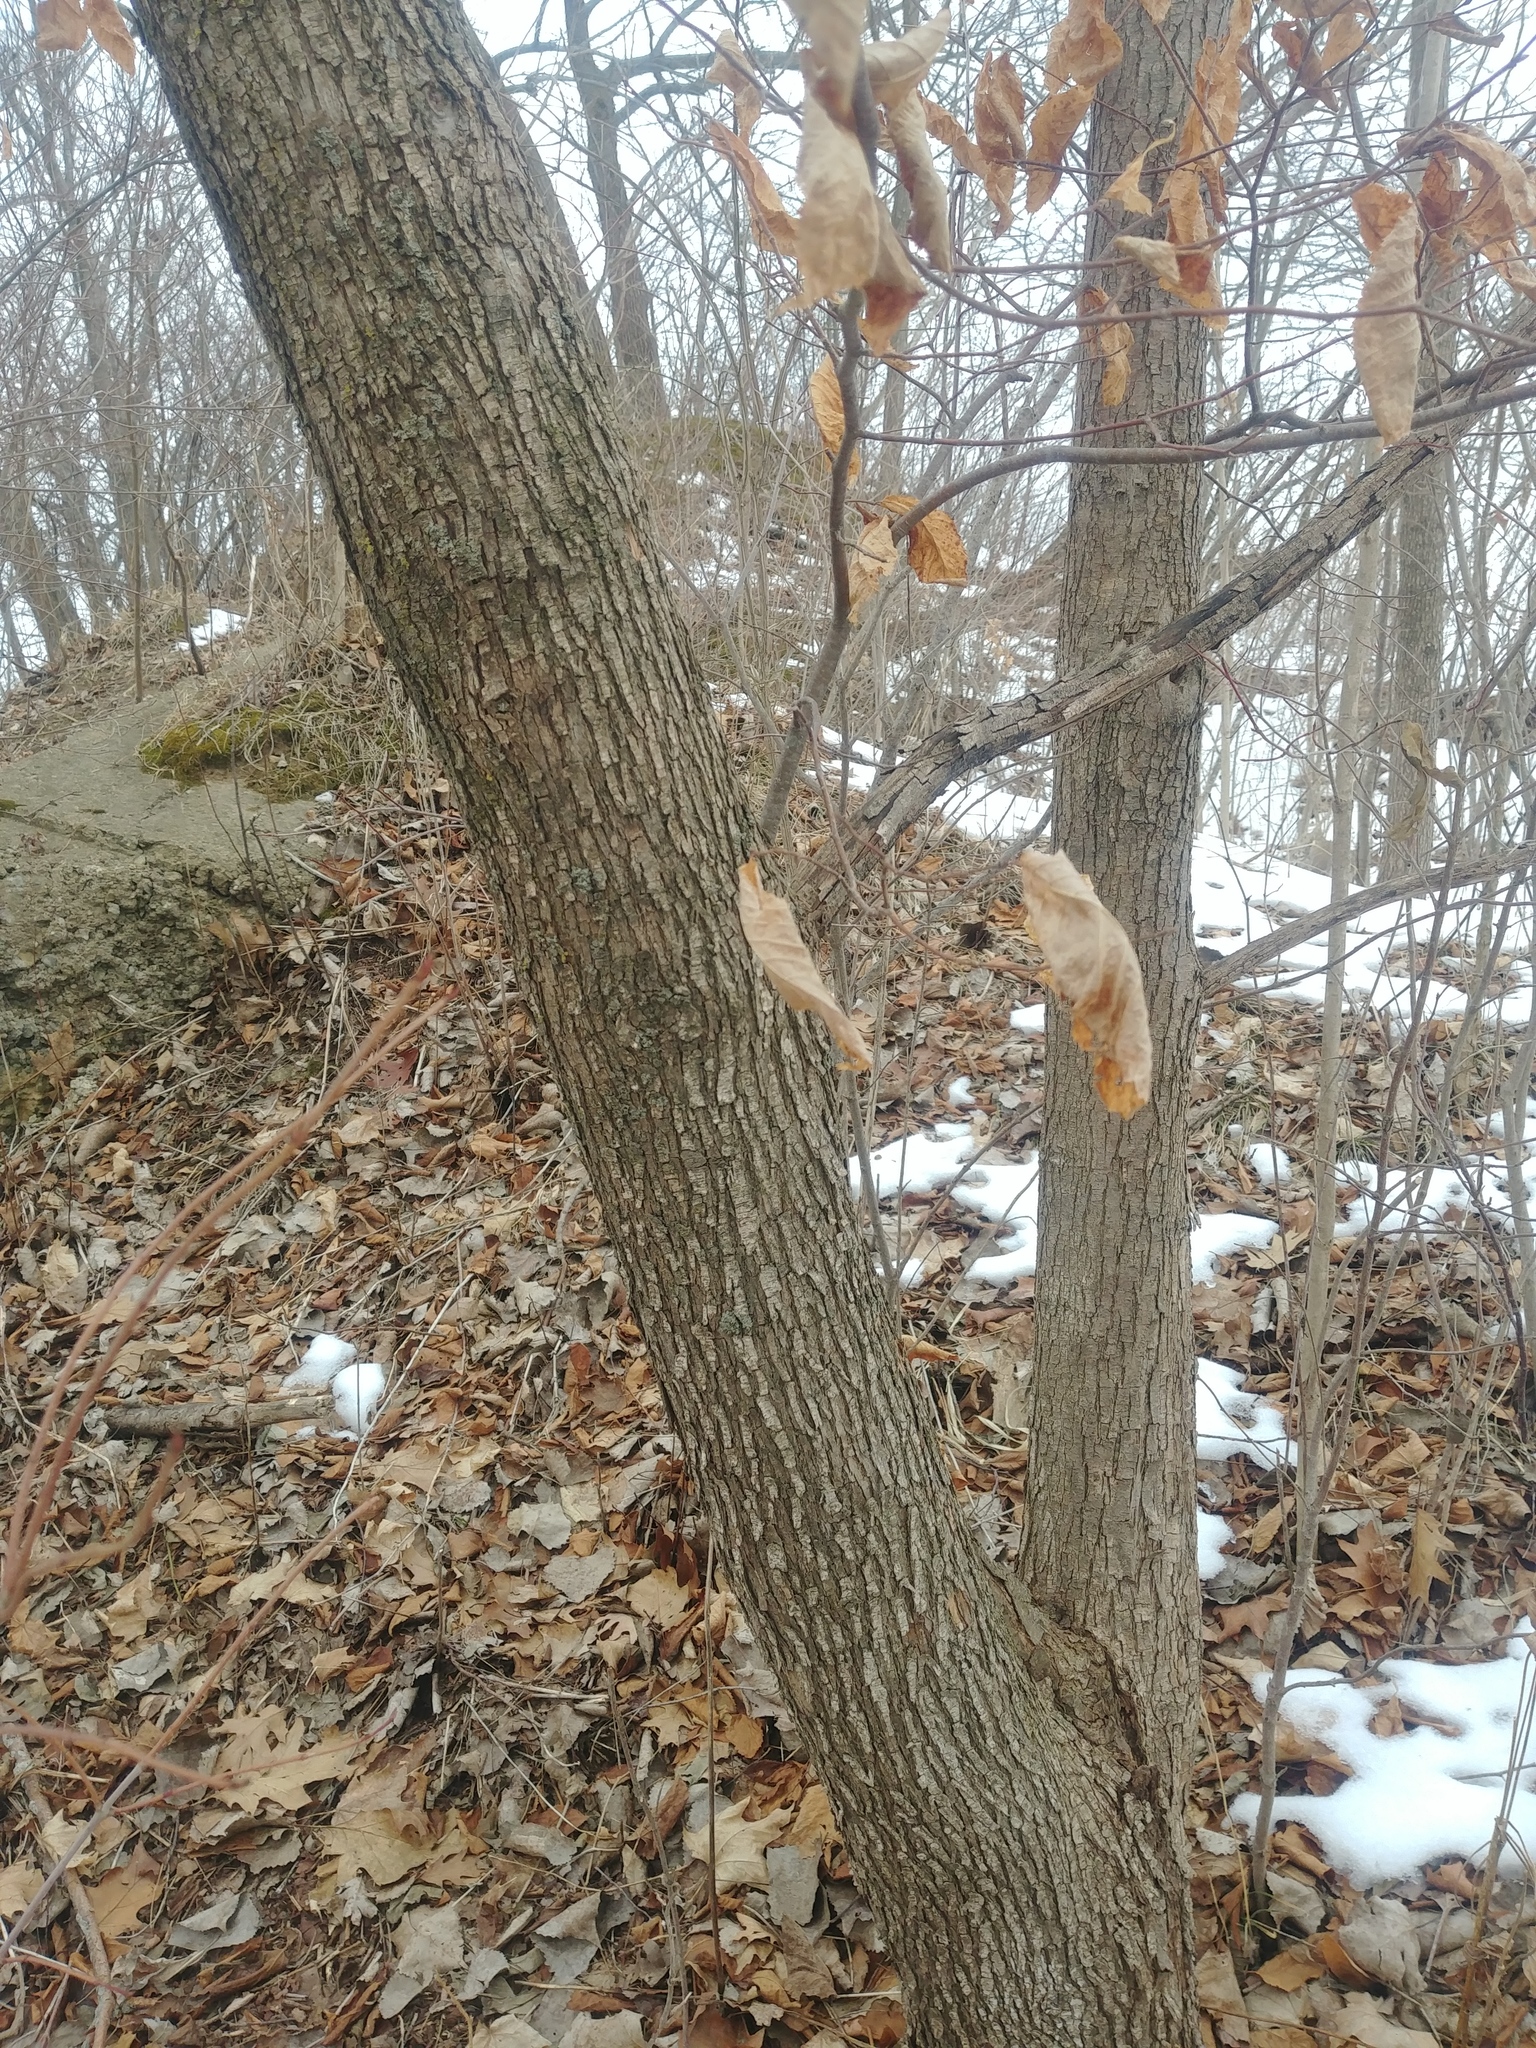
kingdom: Plantae
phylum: Tracheophyta
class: Magnoliopsida
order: Fagales
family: Betulaceae
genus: Ostrya
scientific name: Ostrya virginiana
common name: Ironwood
